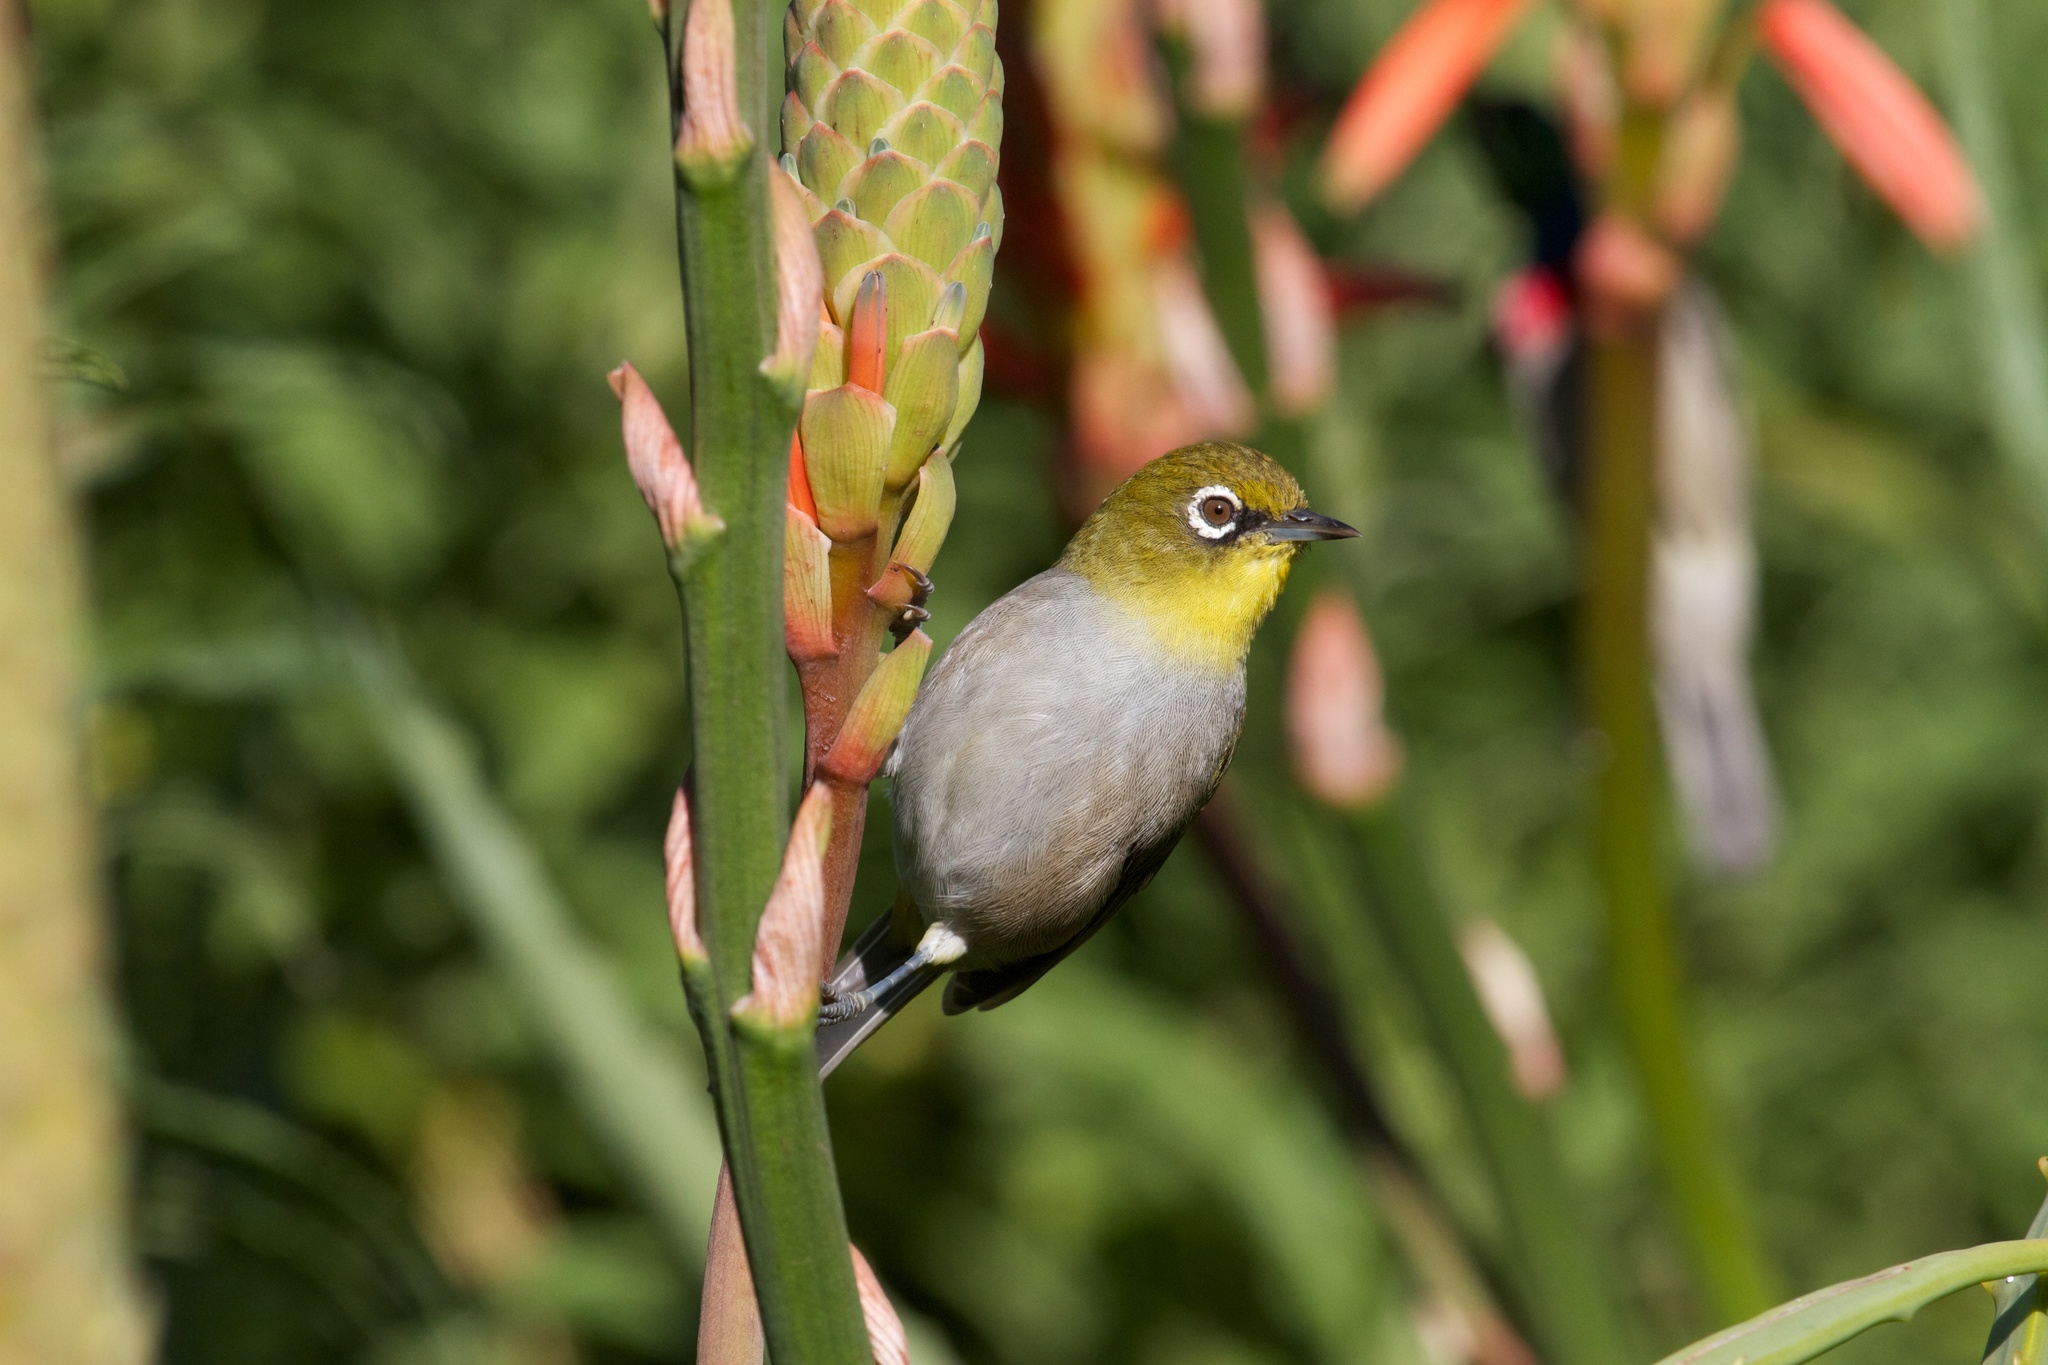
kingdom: Animalia
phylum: Chordata
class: Aves
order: Passeriformes
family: Zosteropidae
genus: Zosterops
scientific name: Zosterops virens
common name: Cape white-eye
